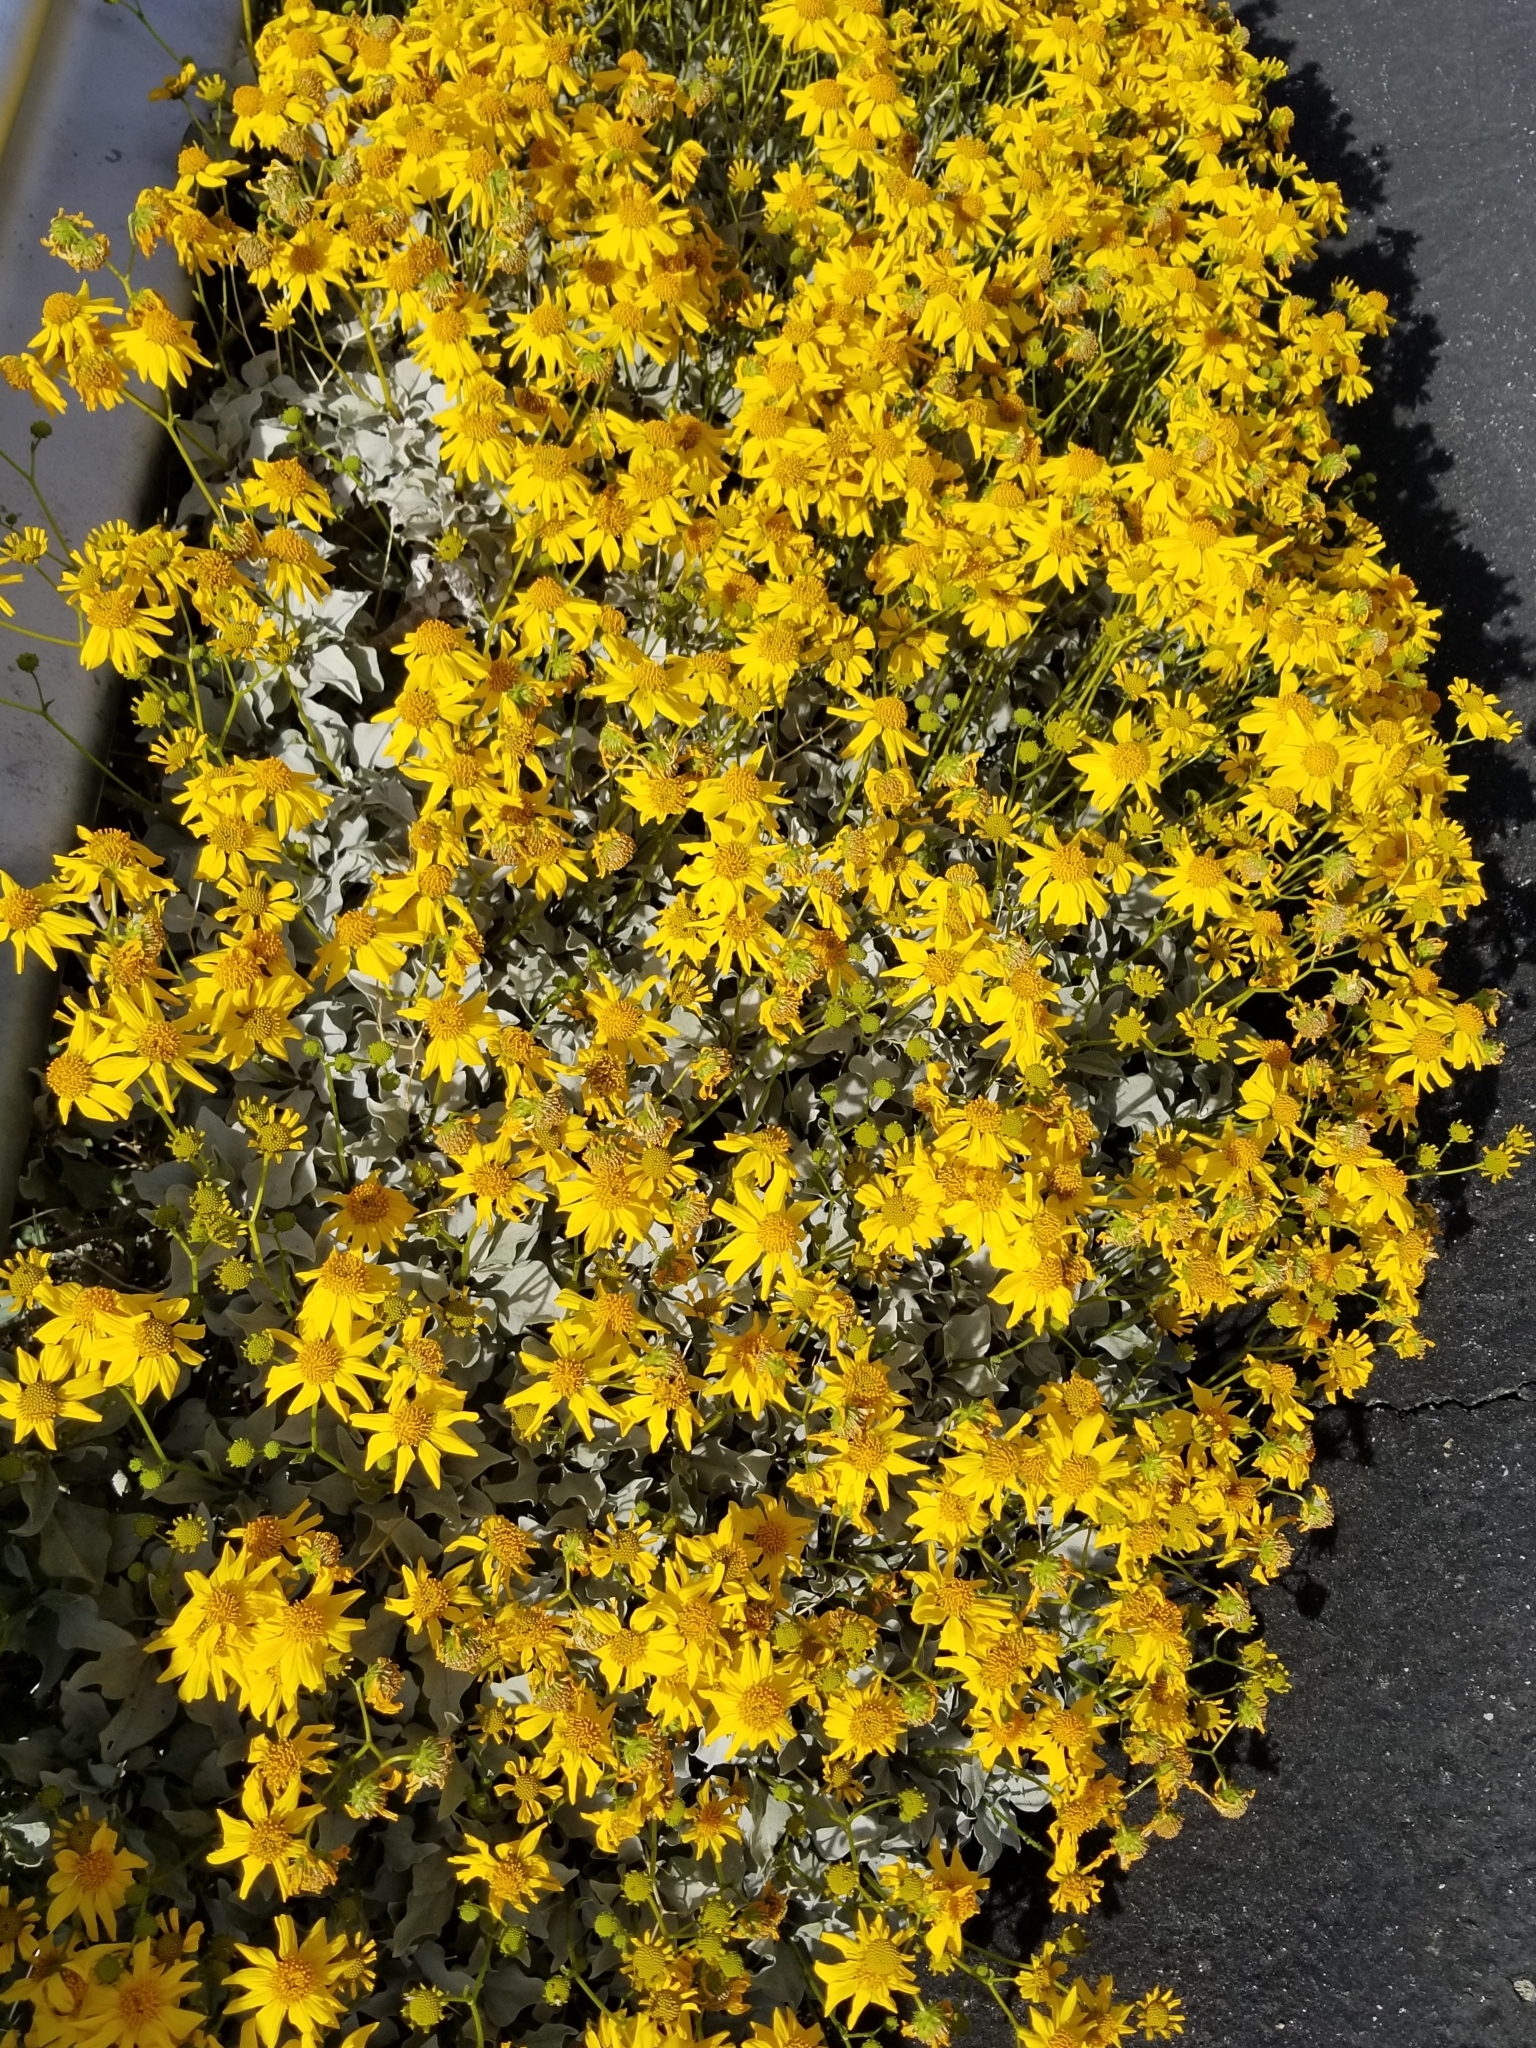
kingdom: Plantae
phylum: Tracheophyta
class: Magnoliopsida
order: Asterales
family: Asteraceae
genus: Encelia
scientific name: Encelia farinosa
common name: Brittlebush
